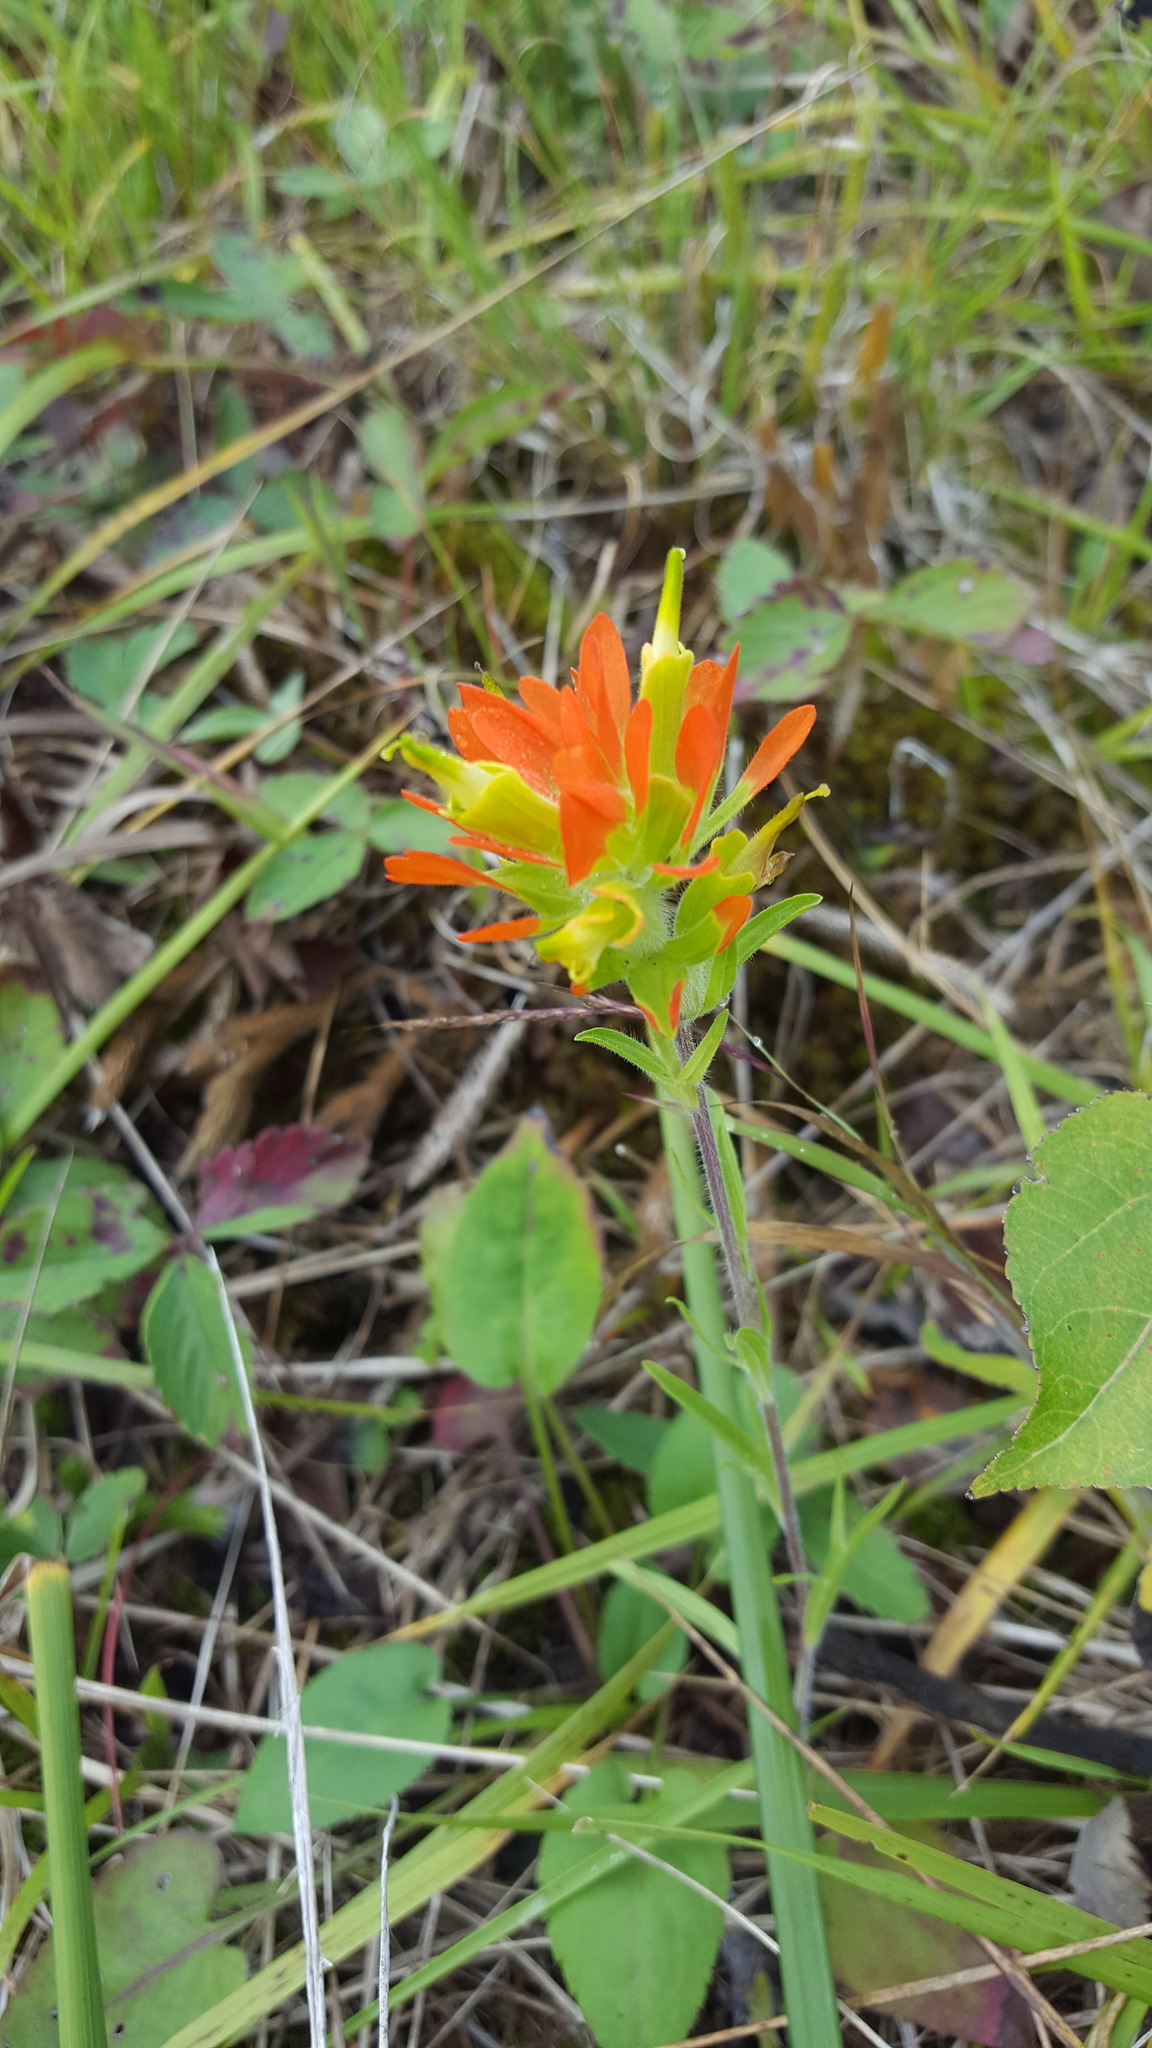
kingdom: Plantae
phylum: Tracheophyta
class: Magnoliopsida
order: Lamiales
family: Orobanchaceae
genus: Castilleja
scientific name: Castilleja coccinea
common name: Scarlet paintbrush
